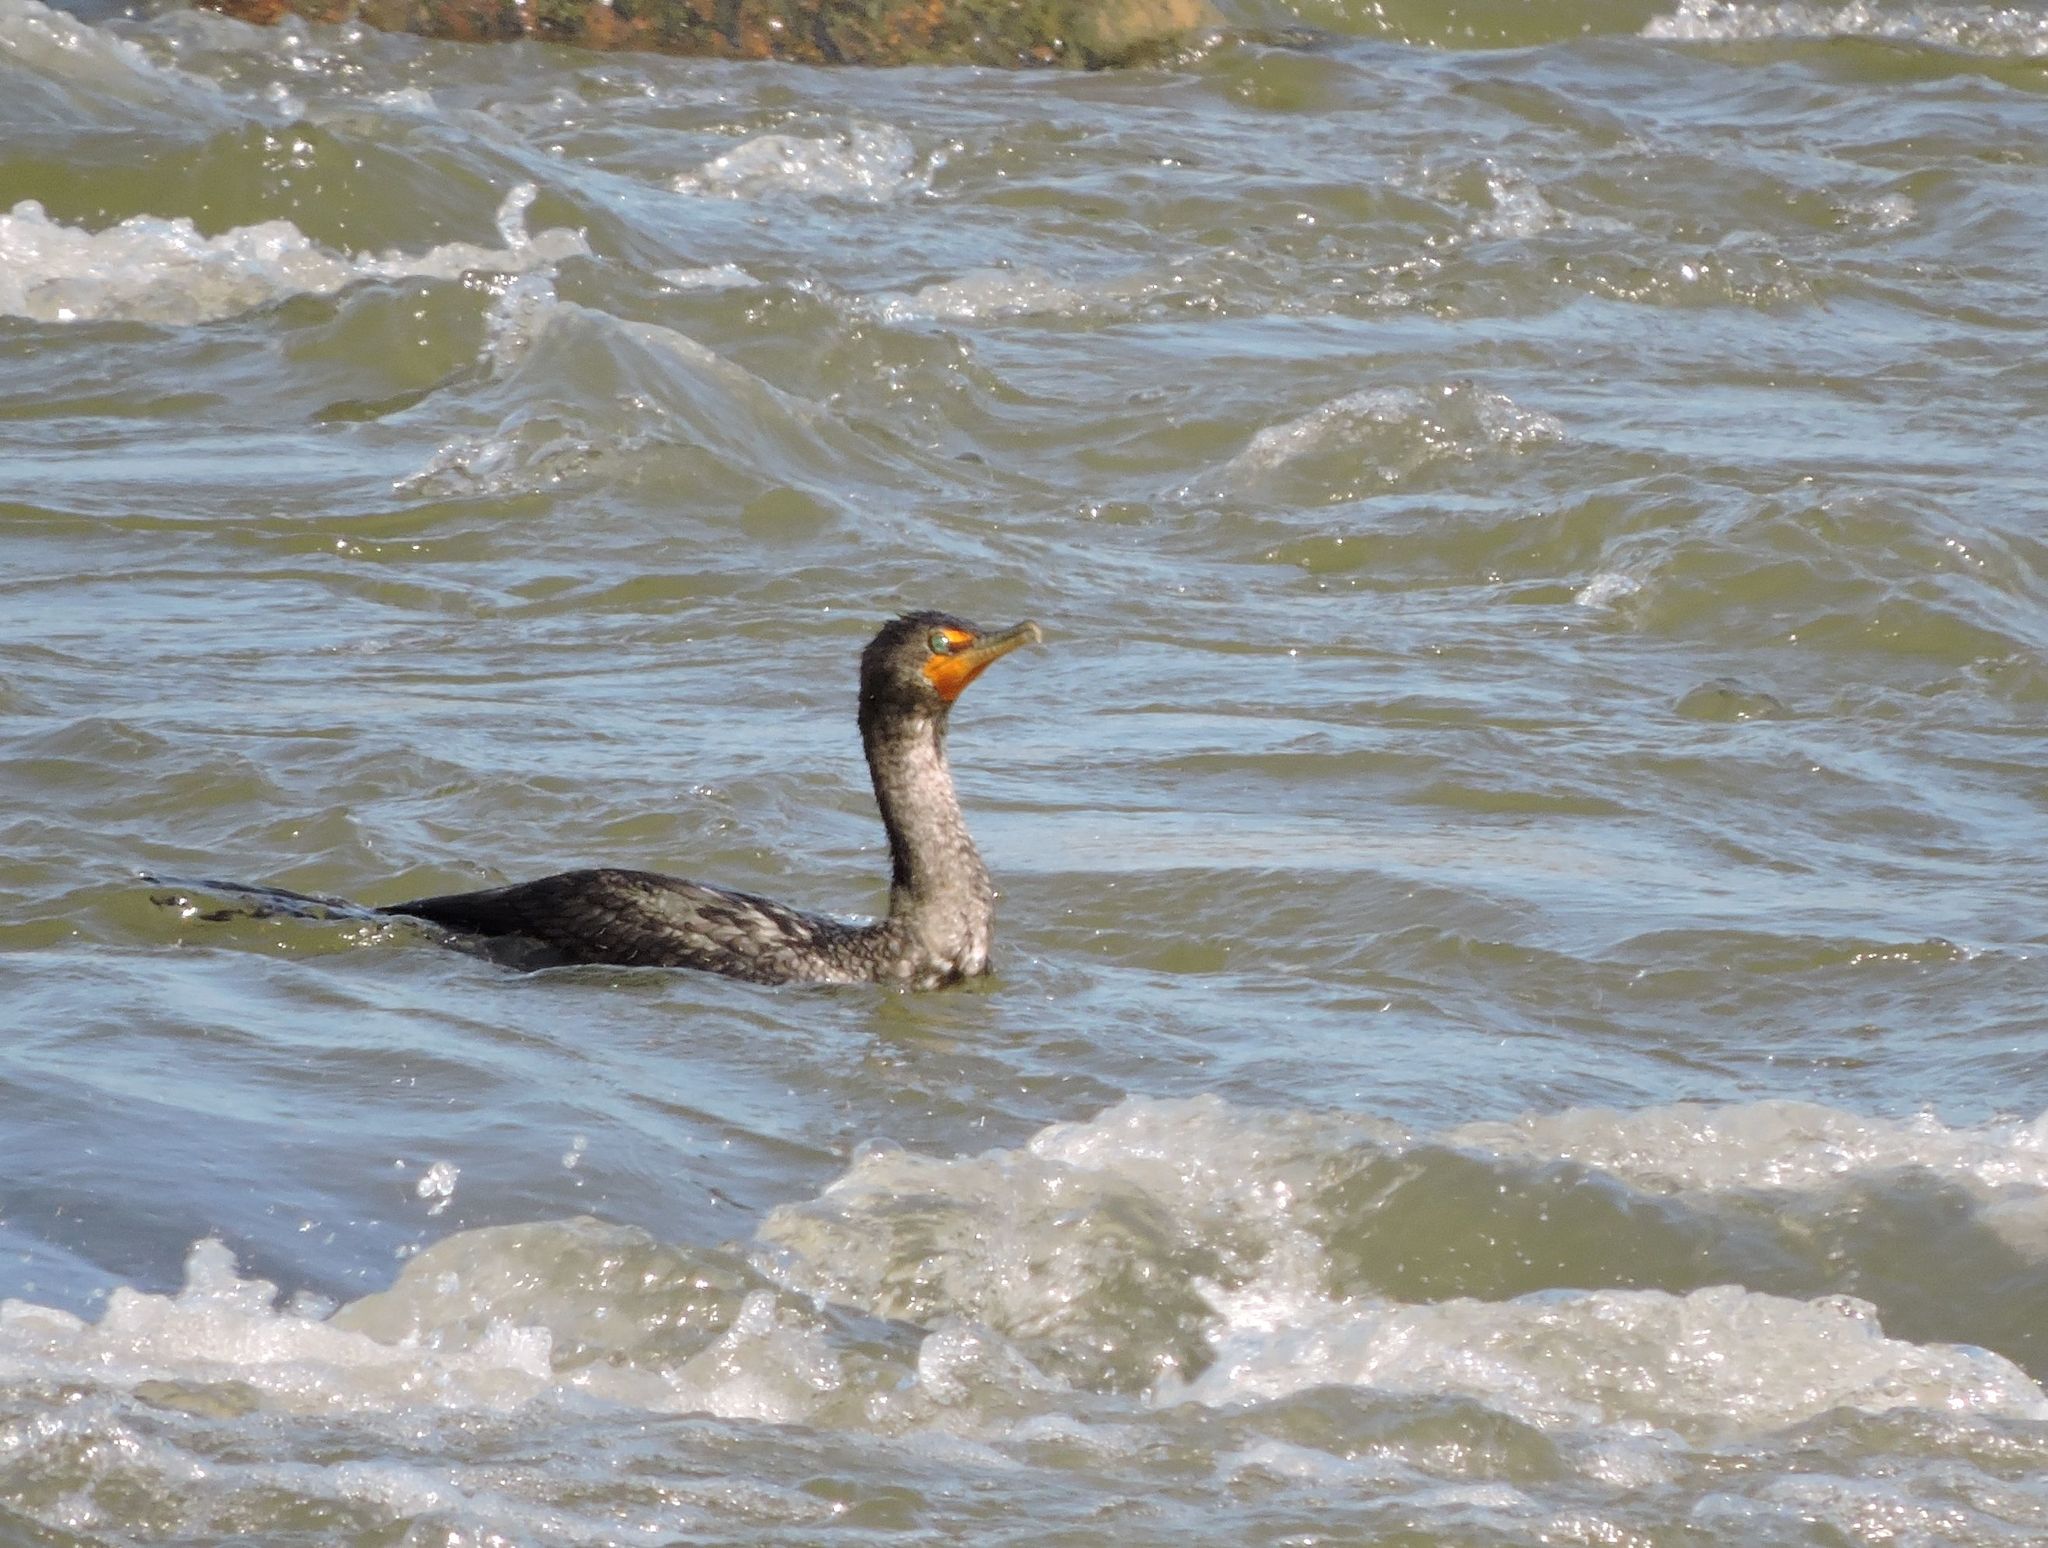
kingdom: Animalia
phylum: Chordata
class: Aves
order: Suliformes
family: Phalacrocoracidae
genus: Phalacrocorax
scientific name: Phalacrocorax auritus
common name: Double-crested cormorant
